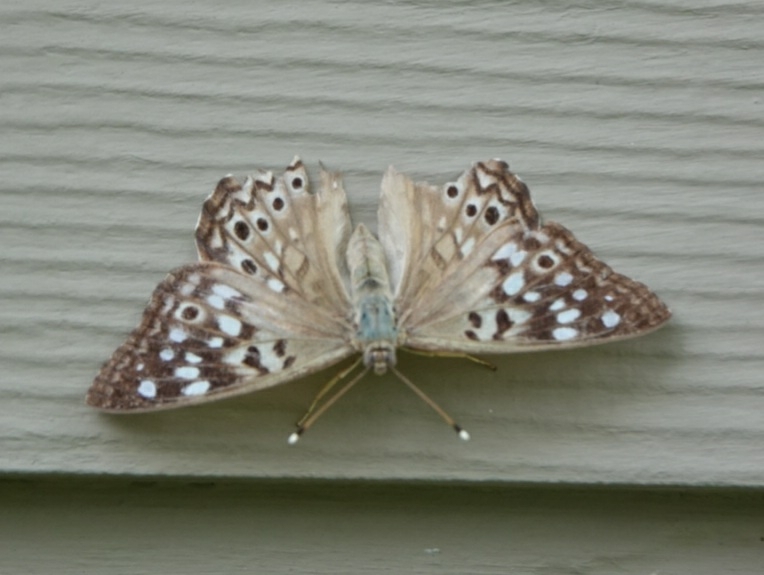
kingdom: Animalia
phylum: Arthropoda
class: Insecta
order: Lepidoptera
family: Nymphalidae
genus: Asterocampa
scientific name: Asterocampa celtis
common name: Hackberry emperor
